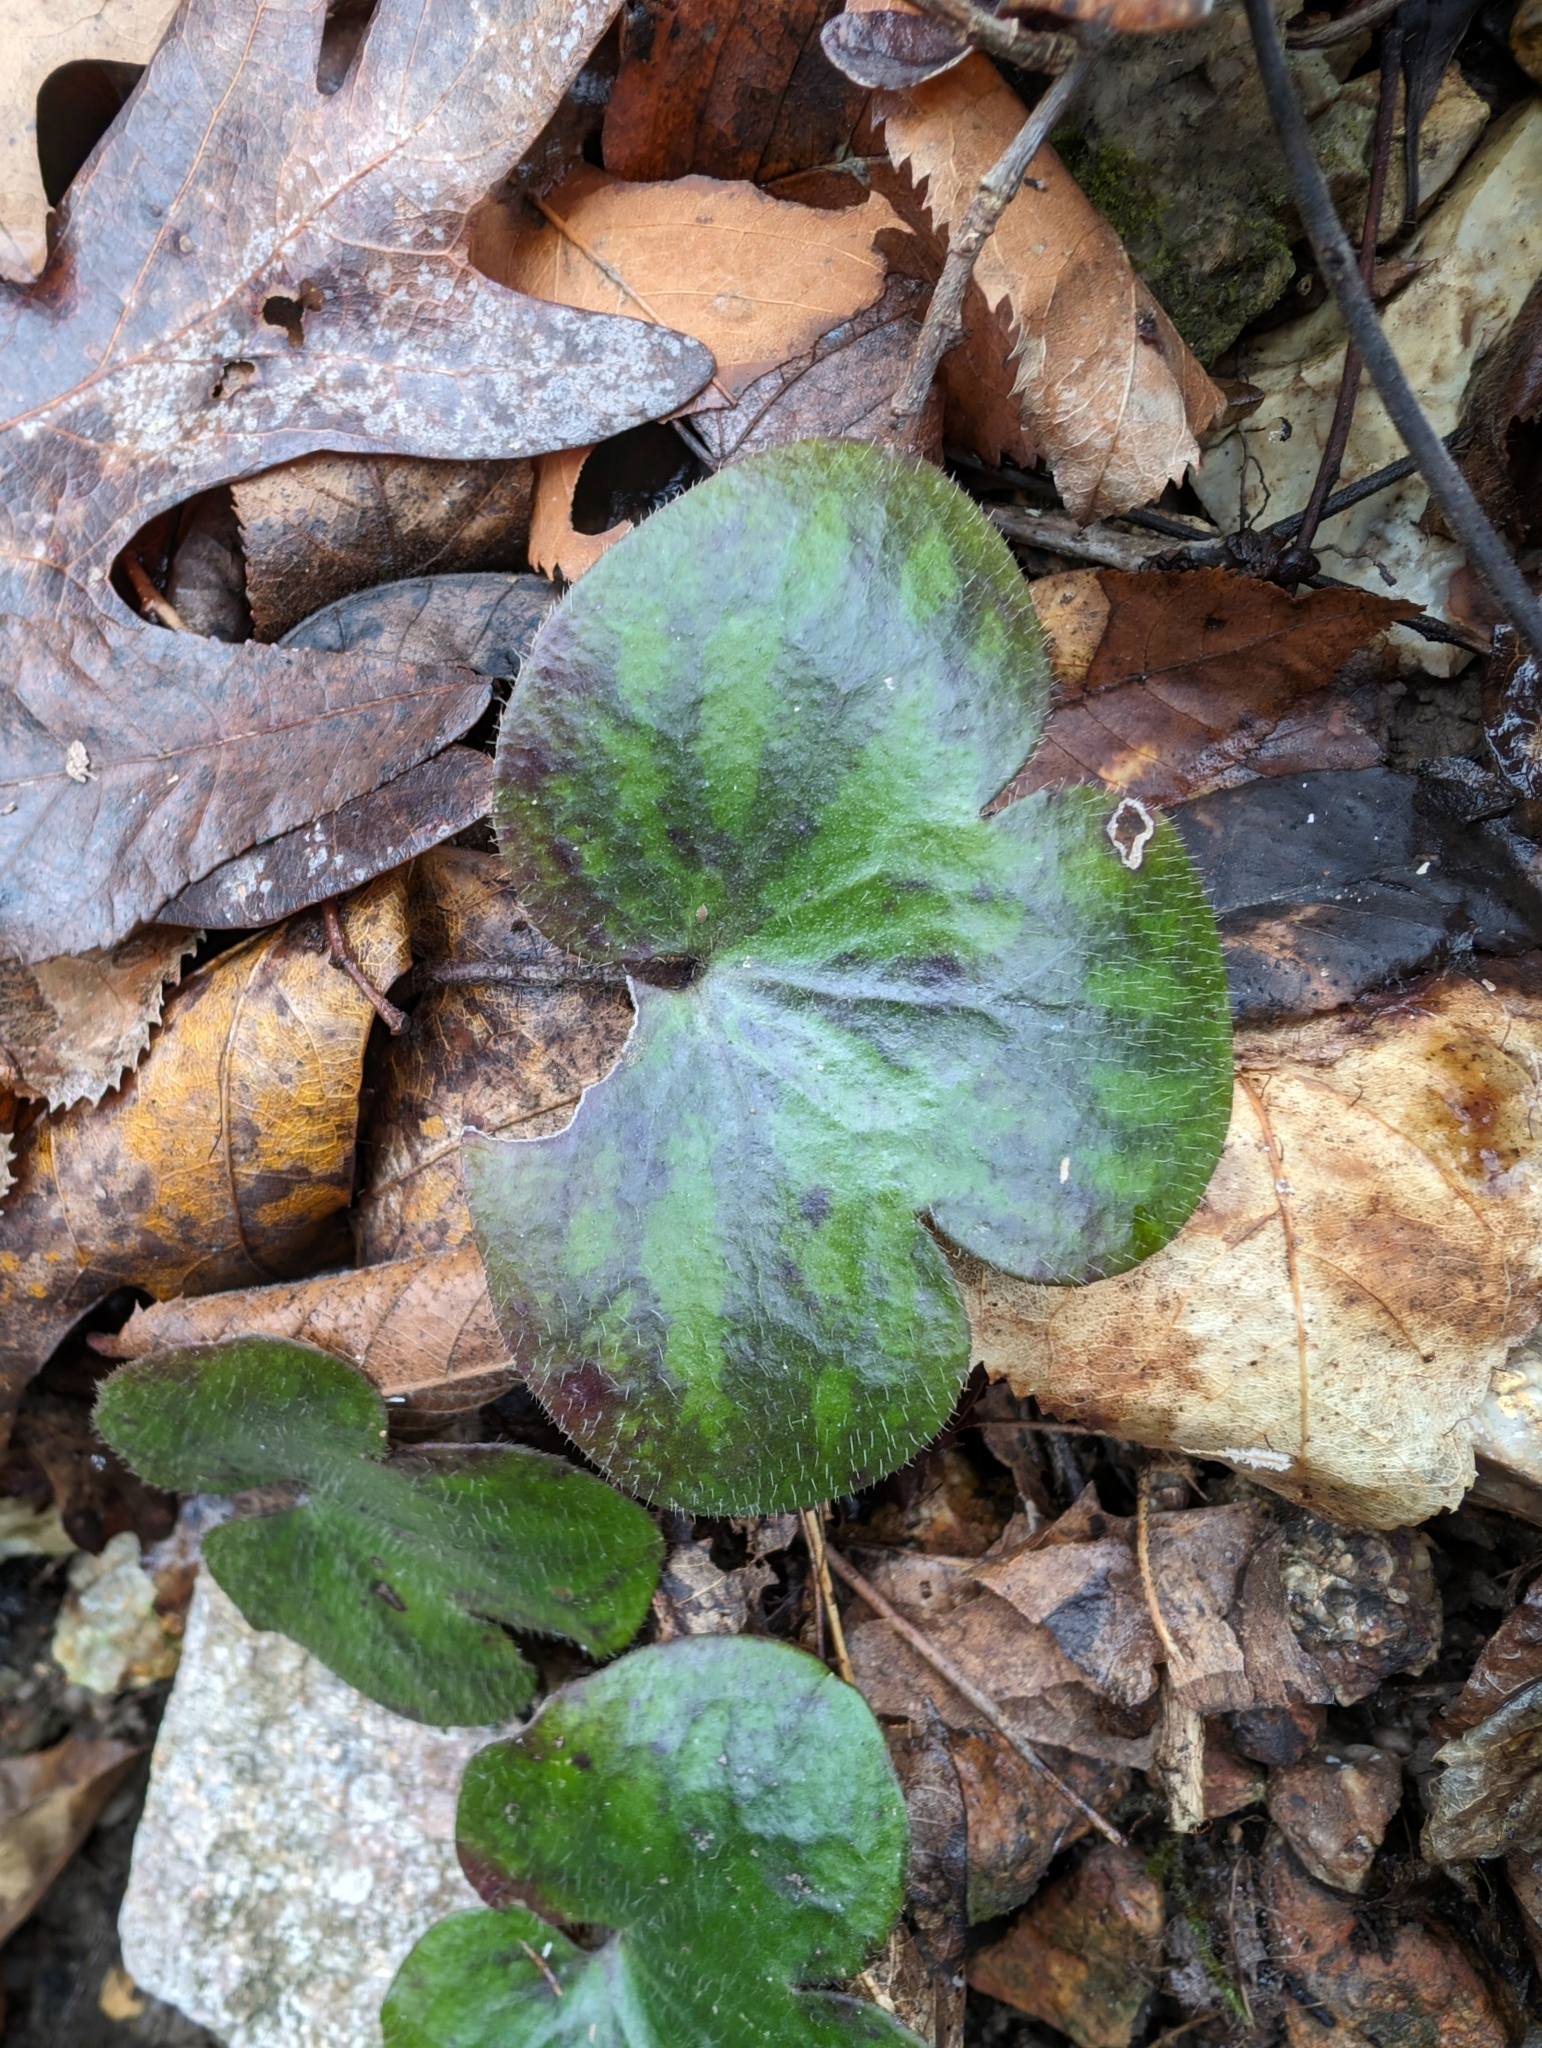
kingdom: Plantae
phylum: Tracheophyta
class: Magnoliopsida
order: Ranunculales
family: Ranunculaceae
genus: Hepatica
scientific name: Hepatica americana
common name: American hepatica
